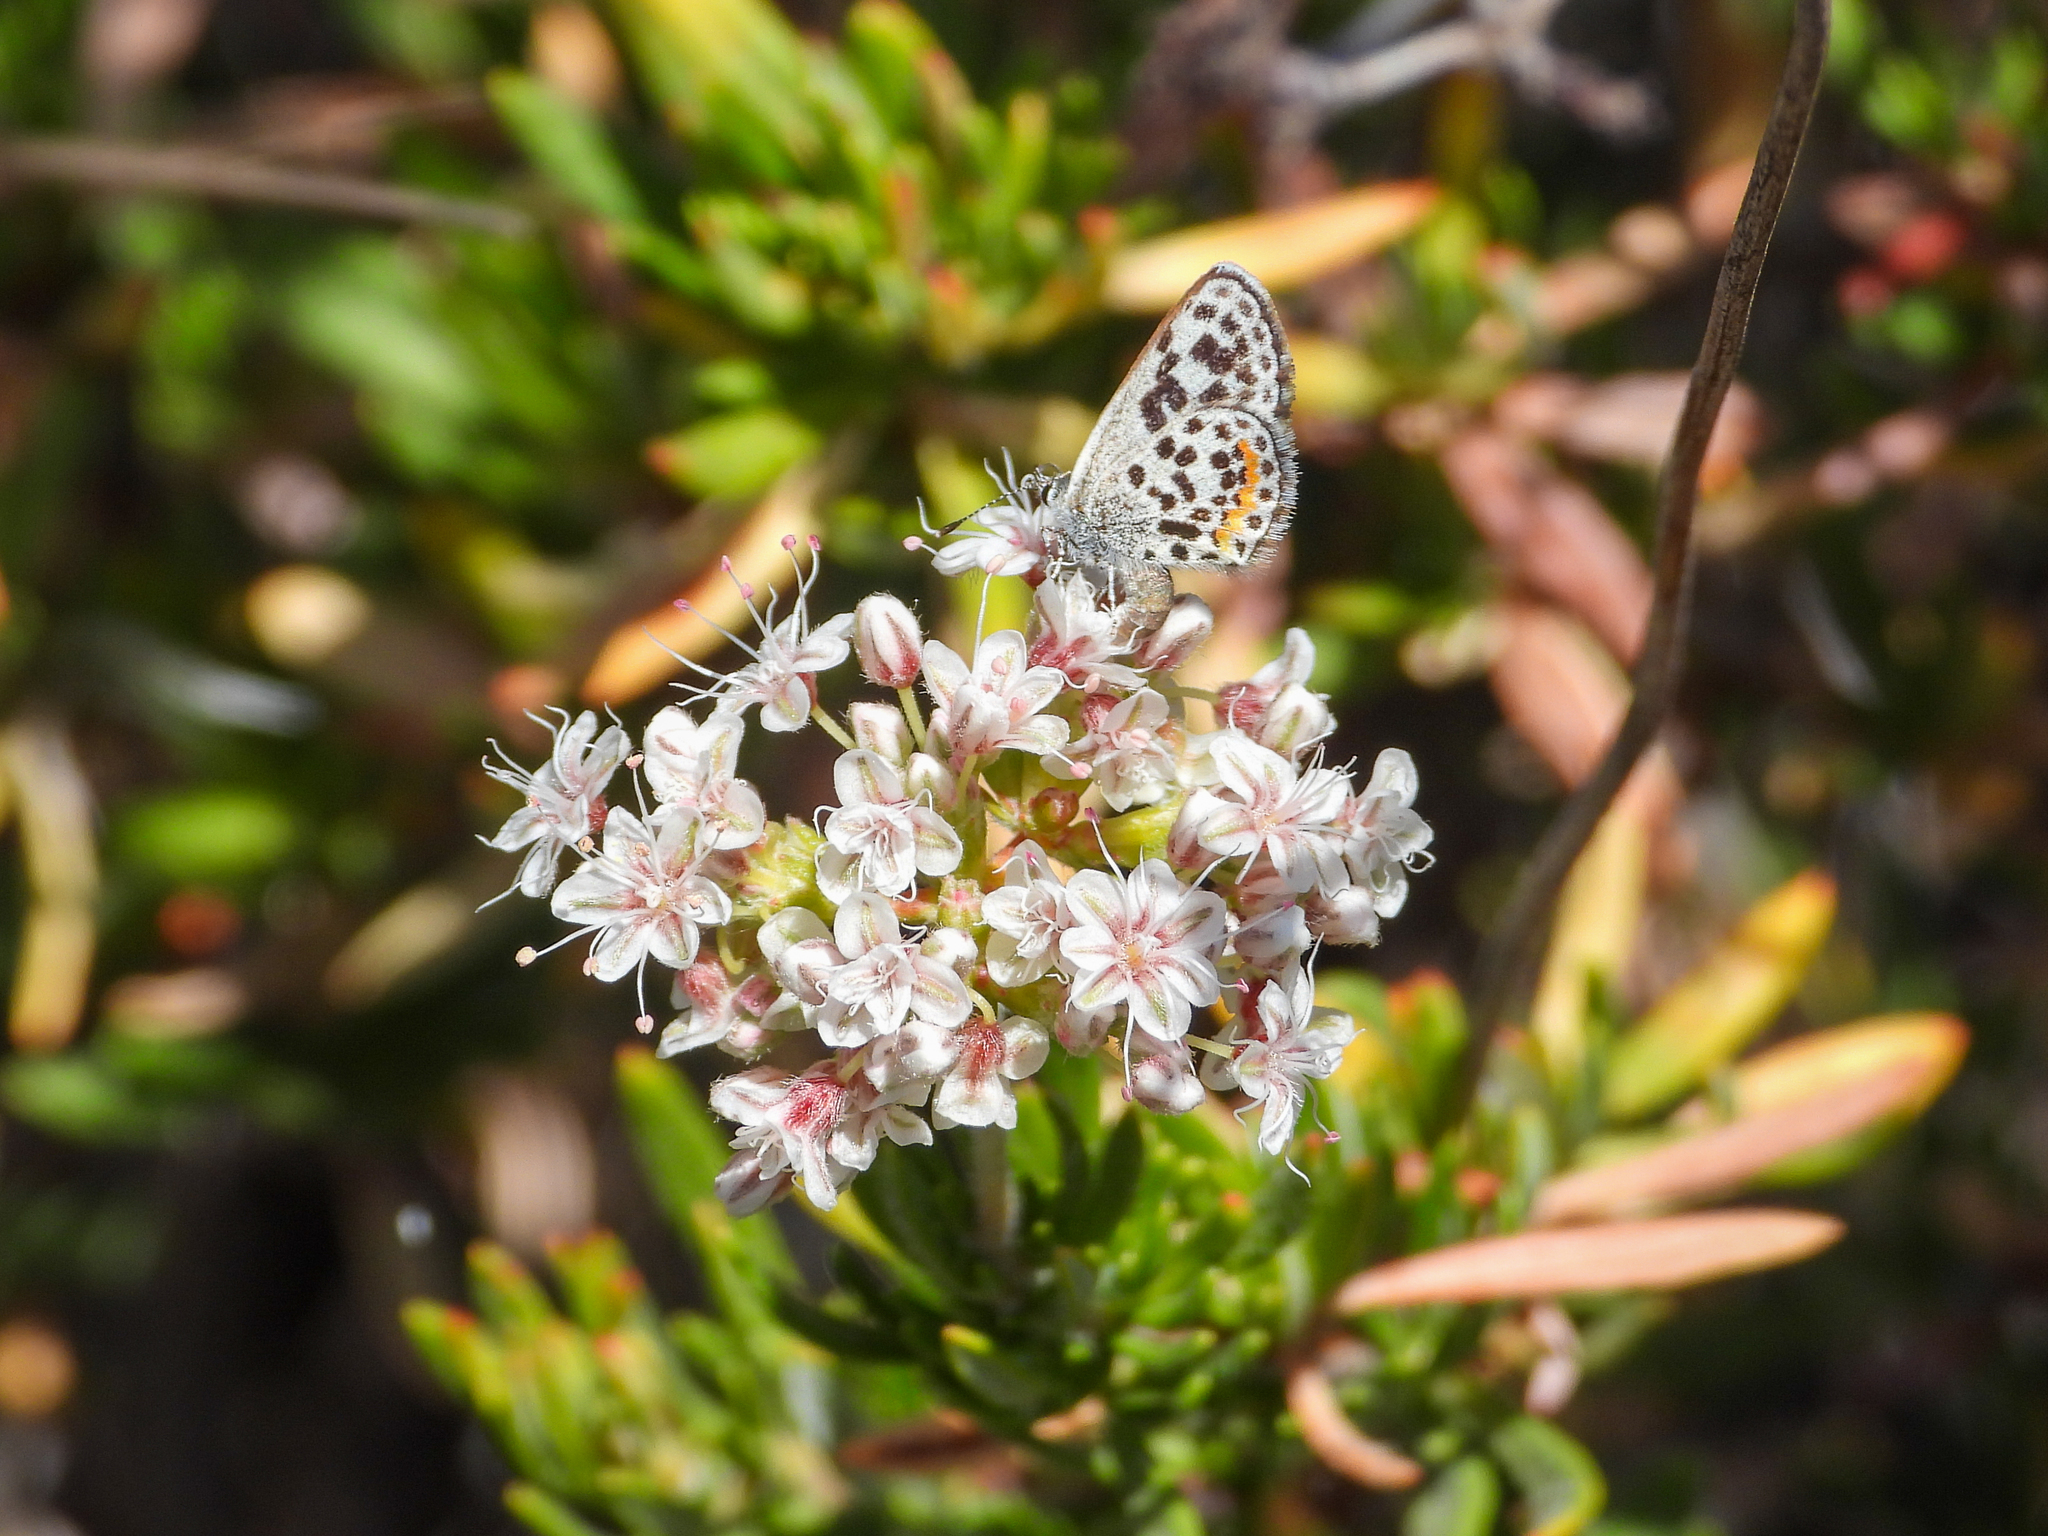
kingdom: Animalia
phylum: Arthropoda
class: Insecta
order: Lepidoptera
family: Lycaenidae
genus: Philotes
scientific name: Philotes bernardino
